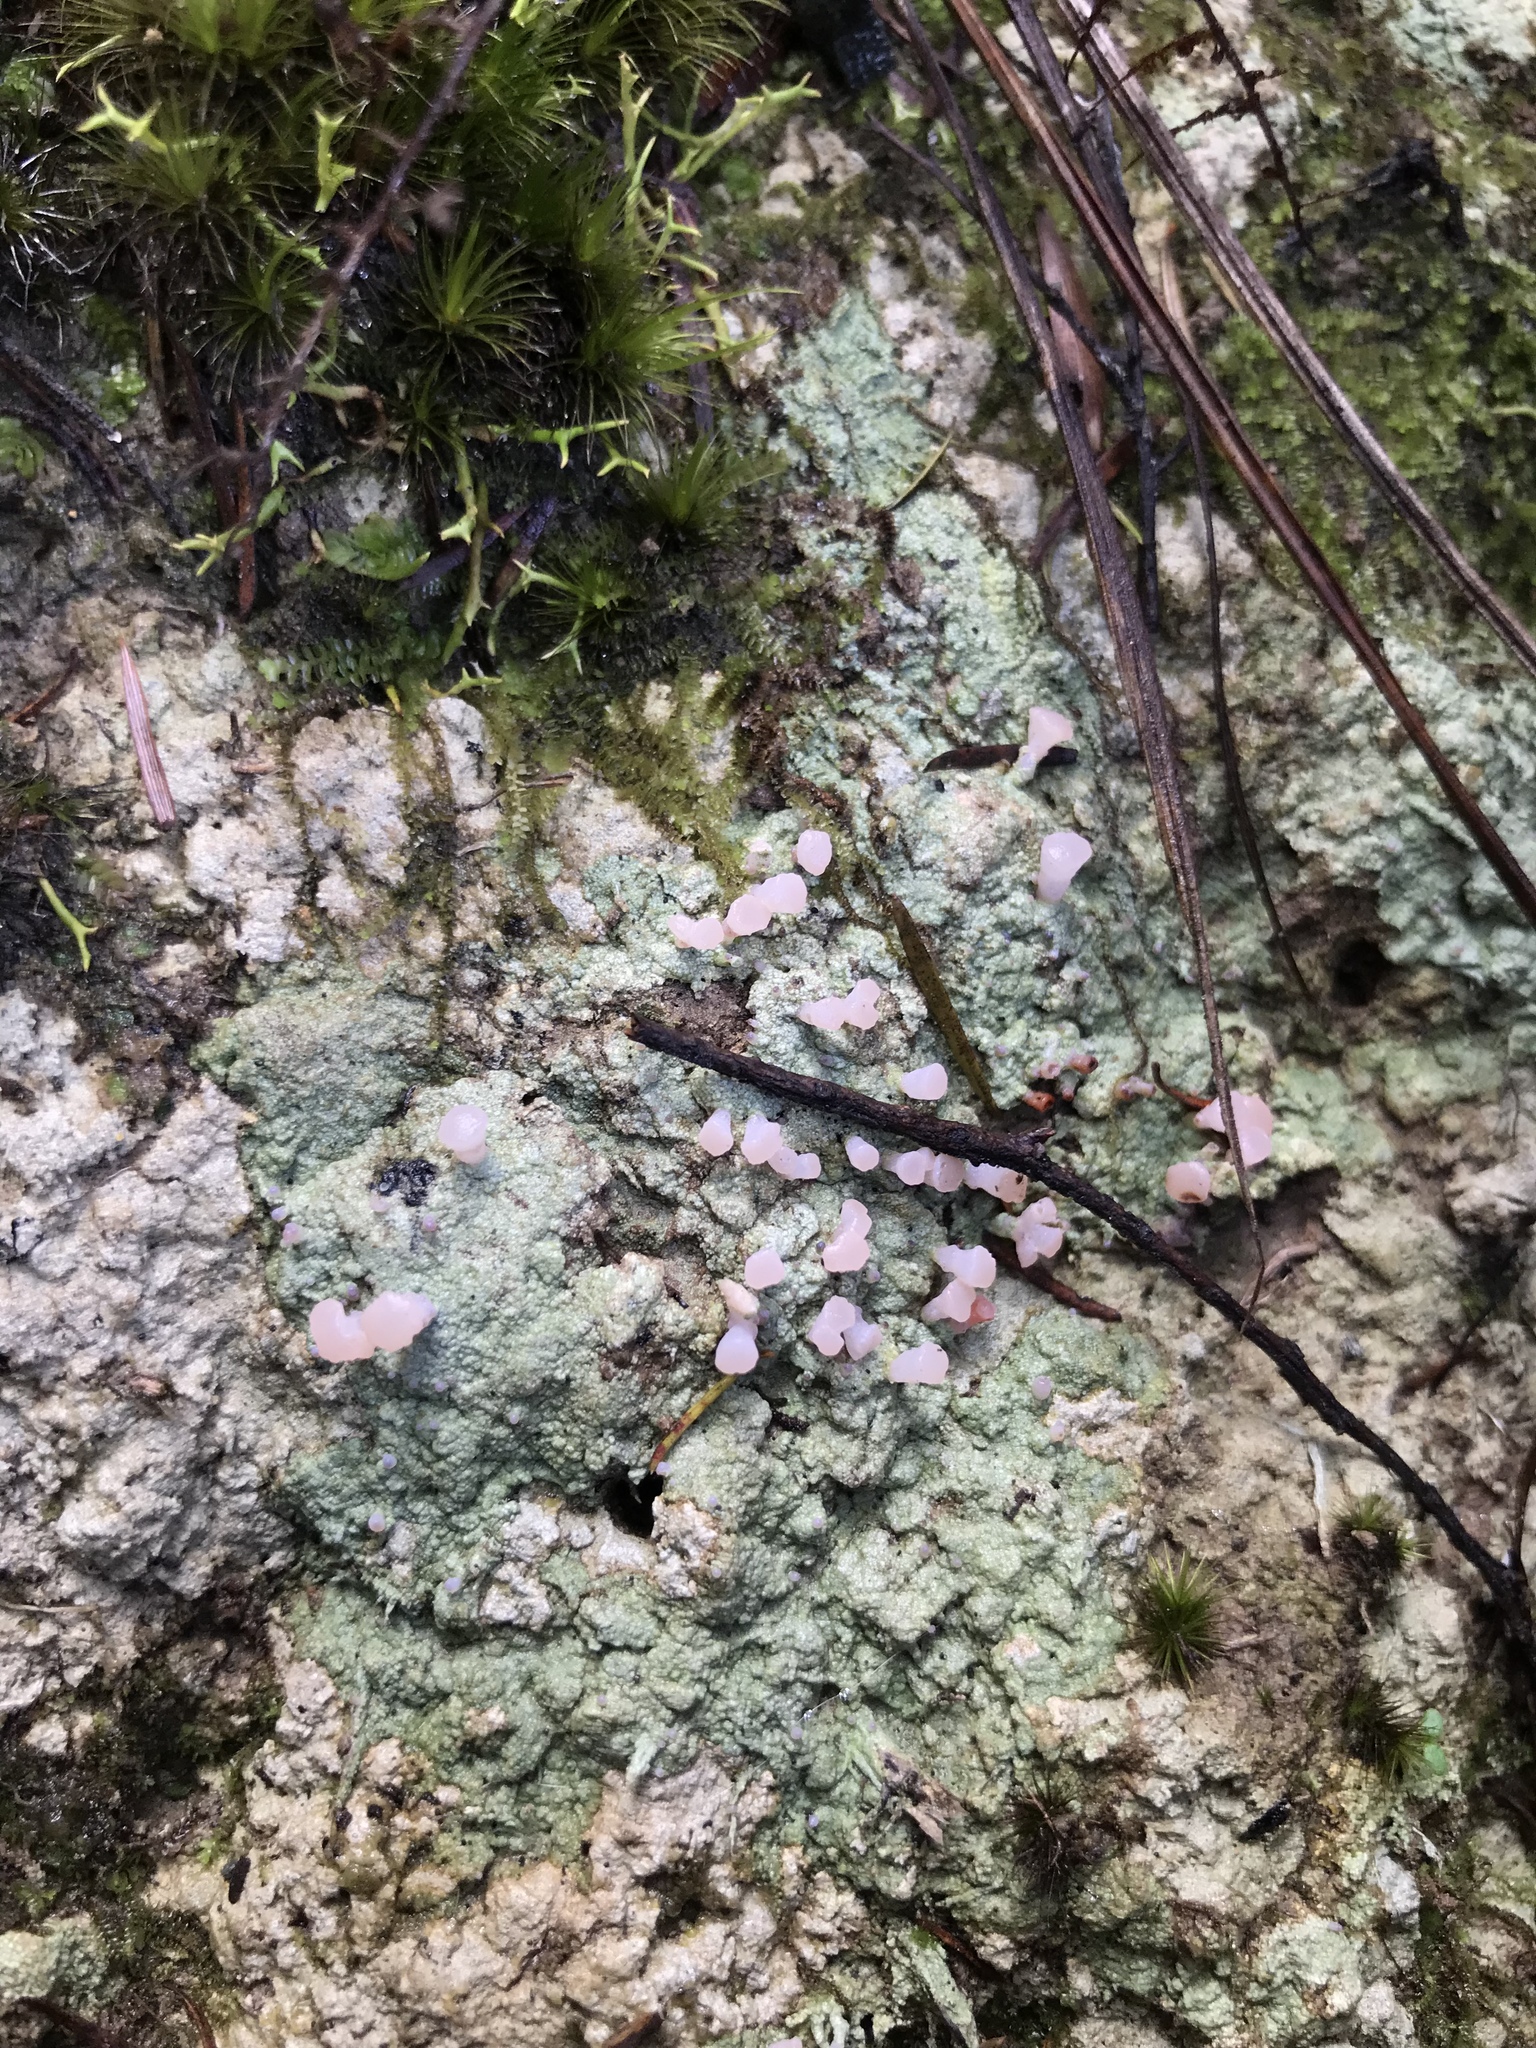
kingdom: Fungi
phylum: Ascomycota
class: Lecanoromycetes
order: Baeomycetales
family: Baeomycetaceae
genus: Baeomyces
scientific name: Baeomyces heteromorphus
